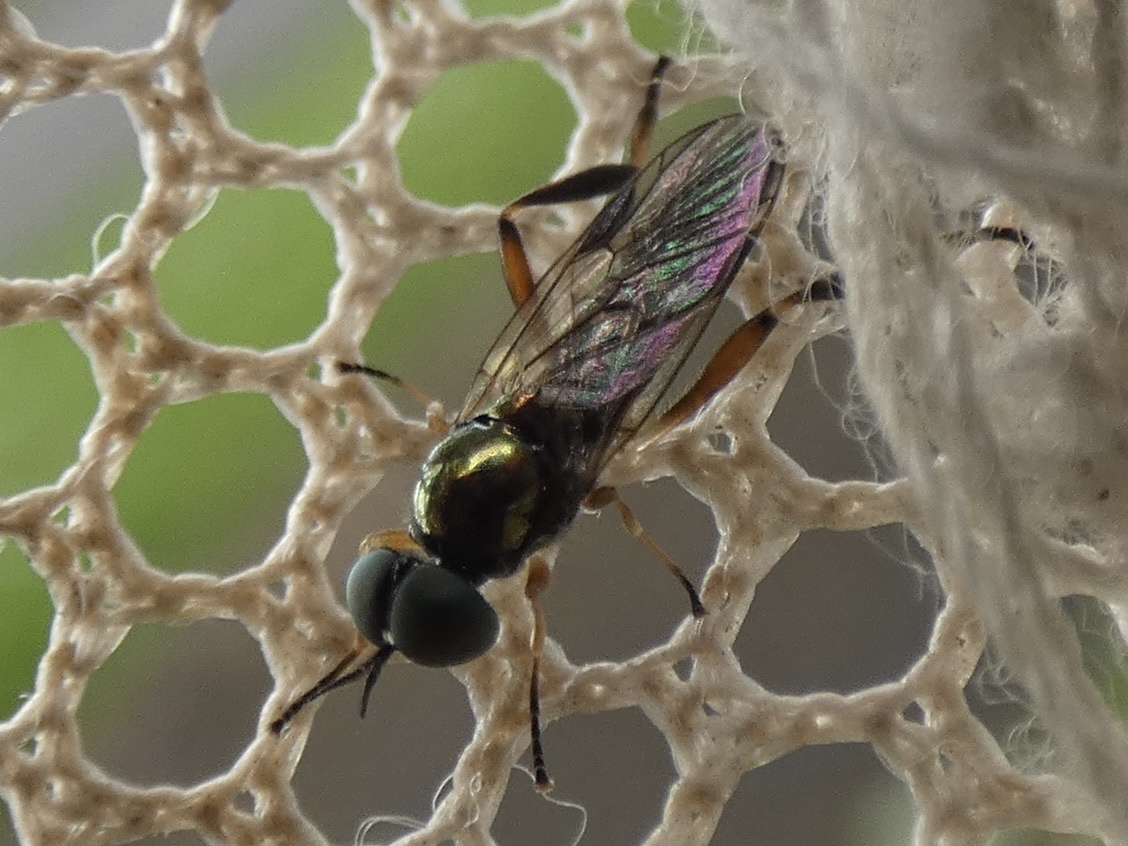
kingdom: Animalia
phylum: Arthropoda
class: Insecta
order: Diptera
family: Stratiomyidae
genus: Chorisops
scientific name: Chorisops tibialis
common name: Dull four-spined legionnaire
